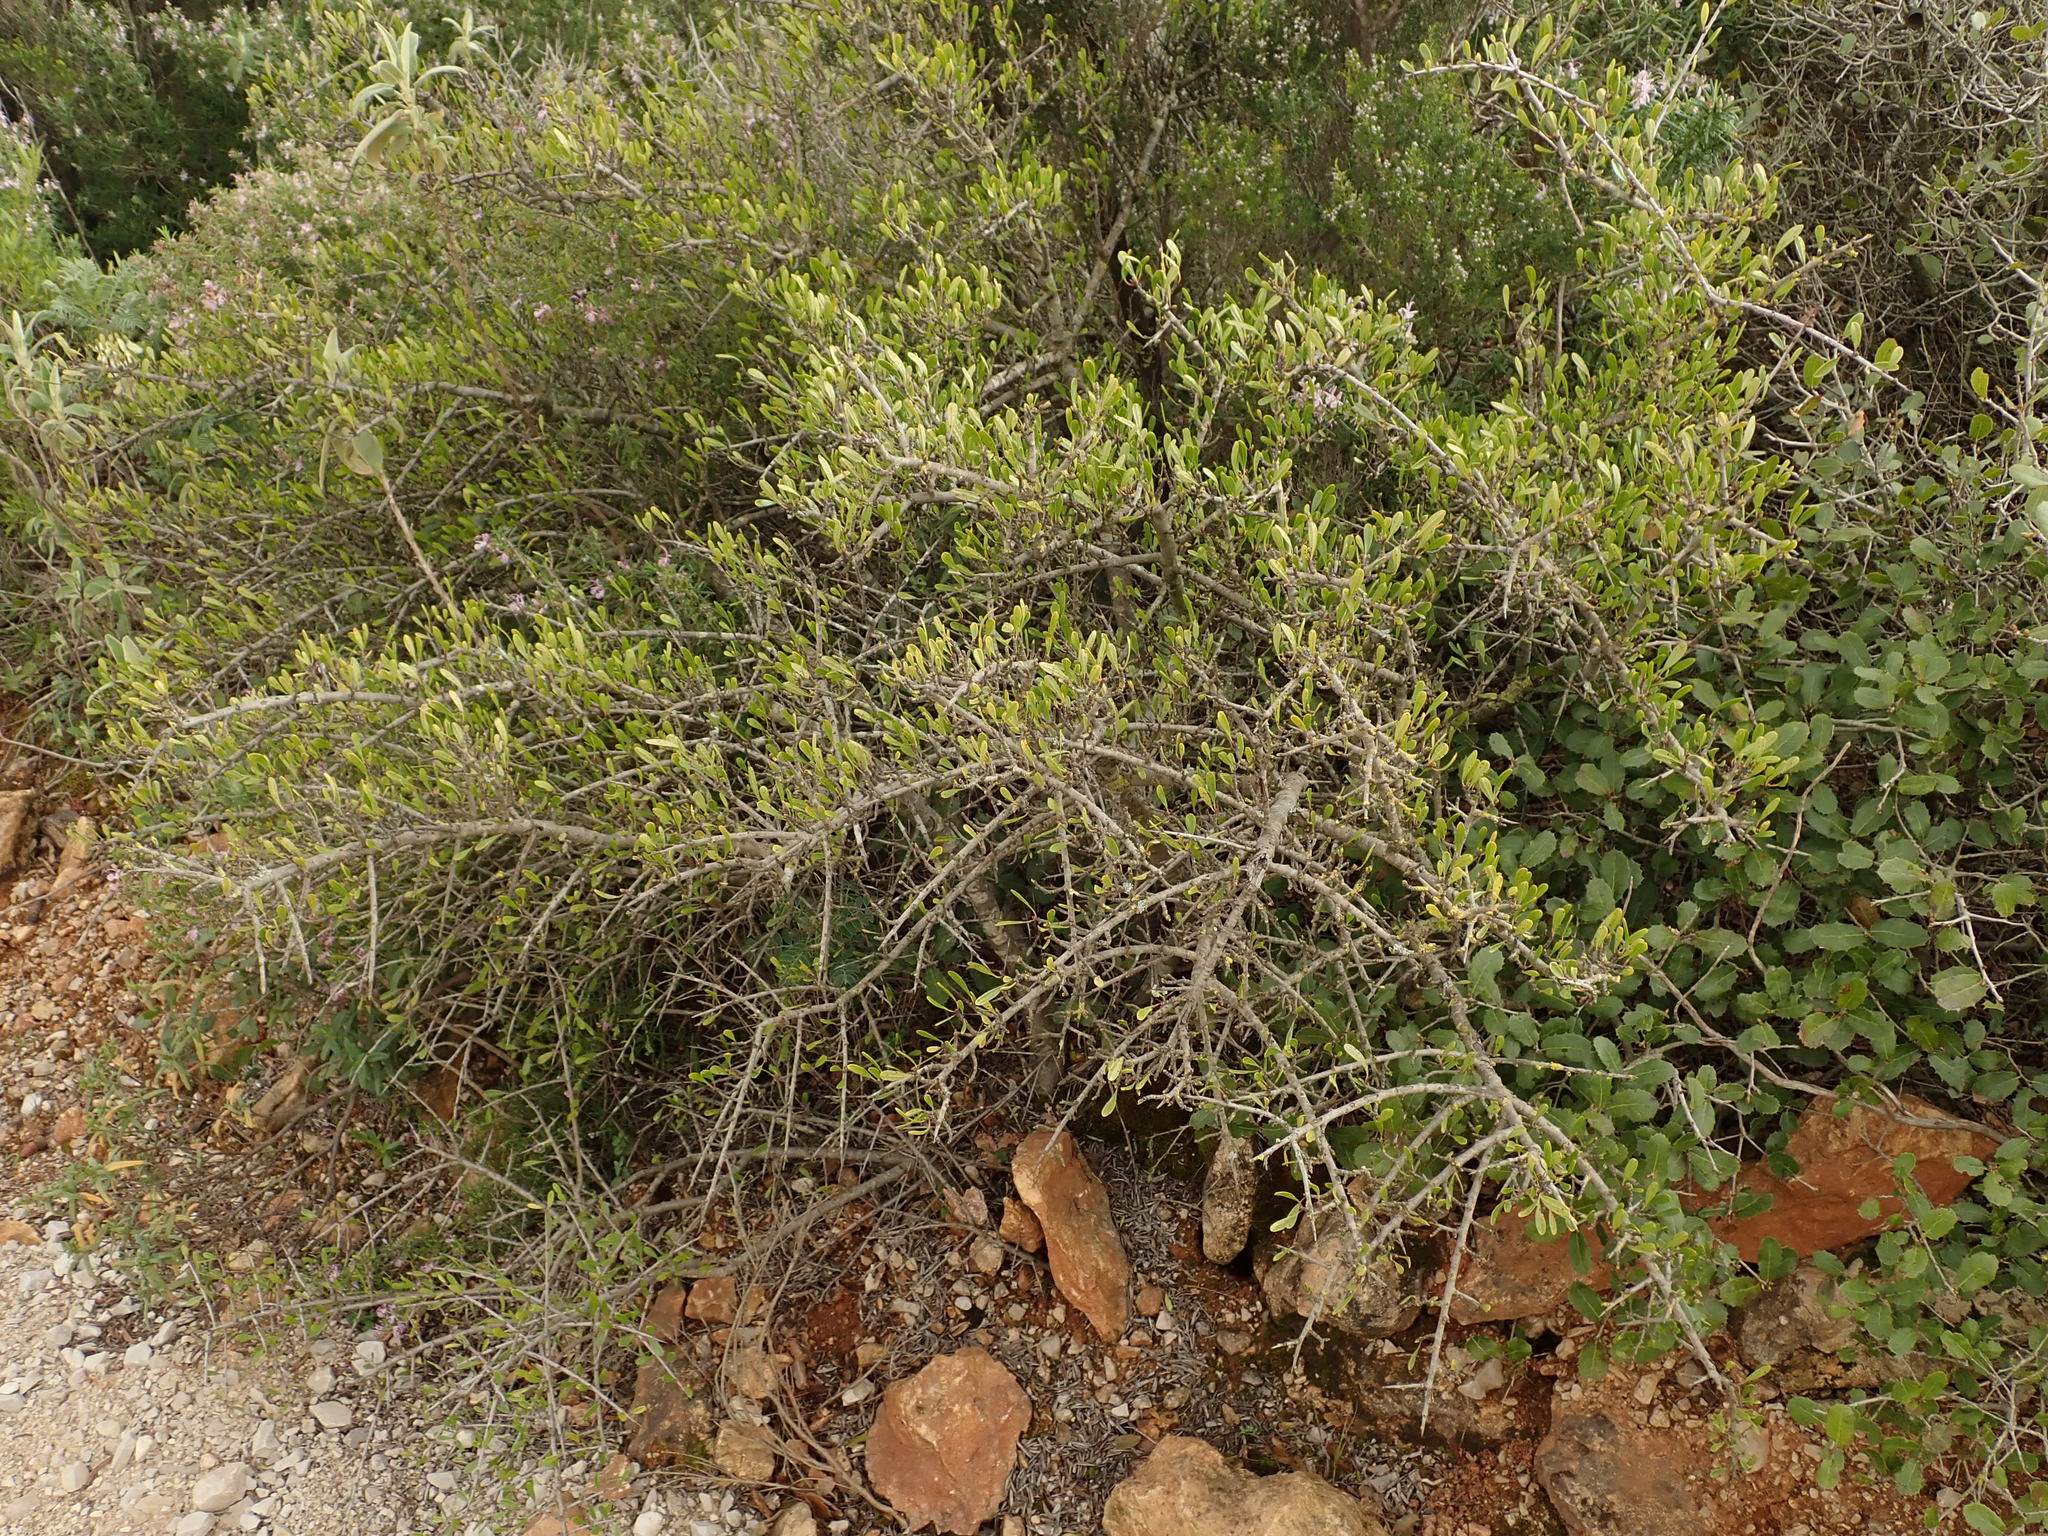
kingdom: Plantae
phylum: Tracheophyta
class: Magnoliopsida
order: Rosales
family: Rhamnaceae
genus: Rhamnus
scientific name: Rhamnus oleoides
